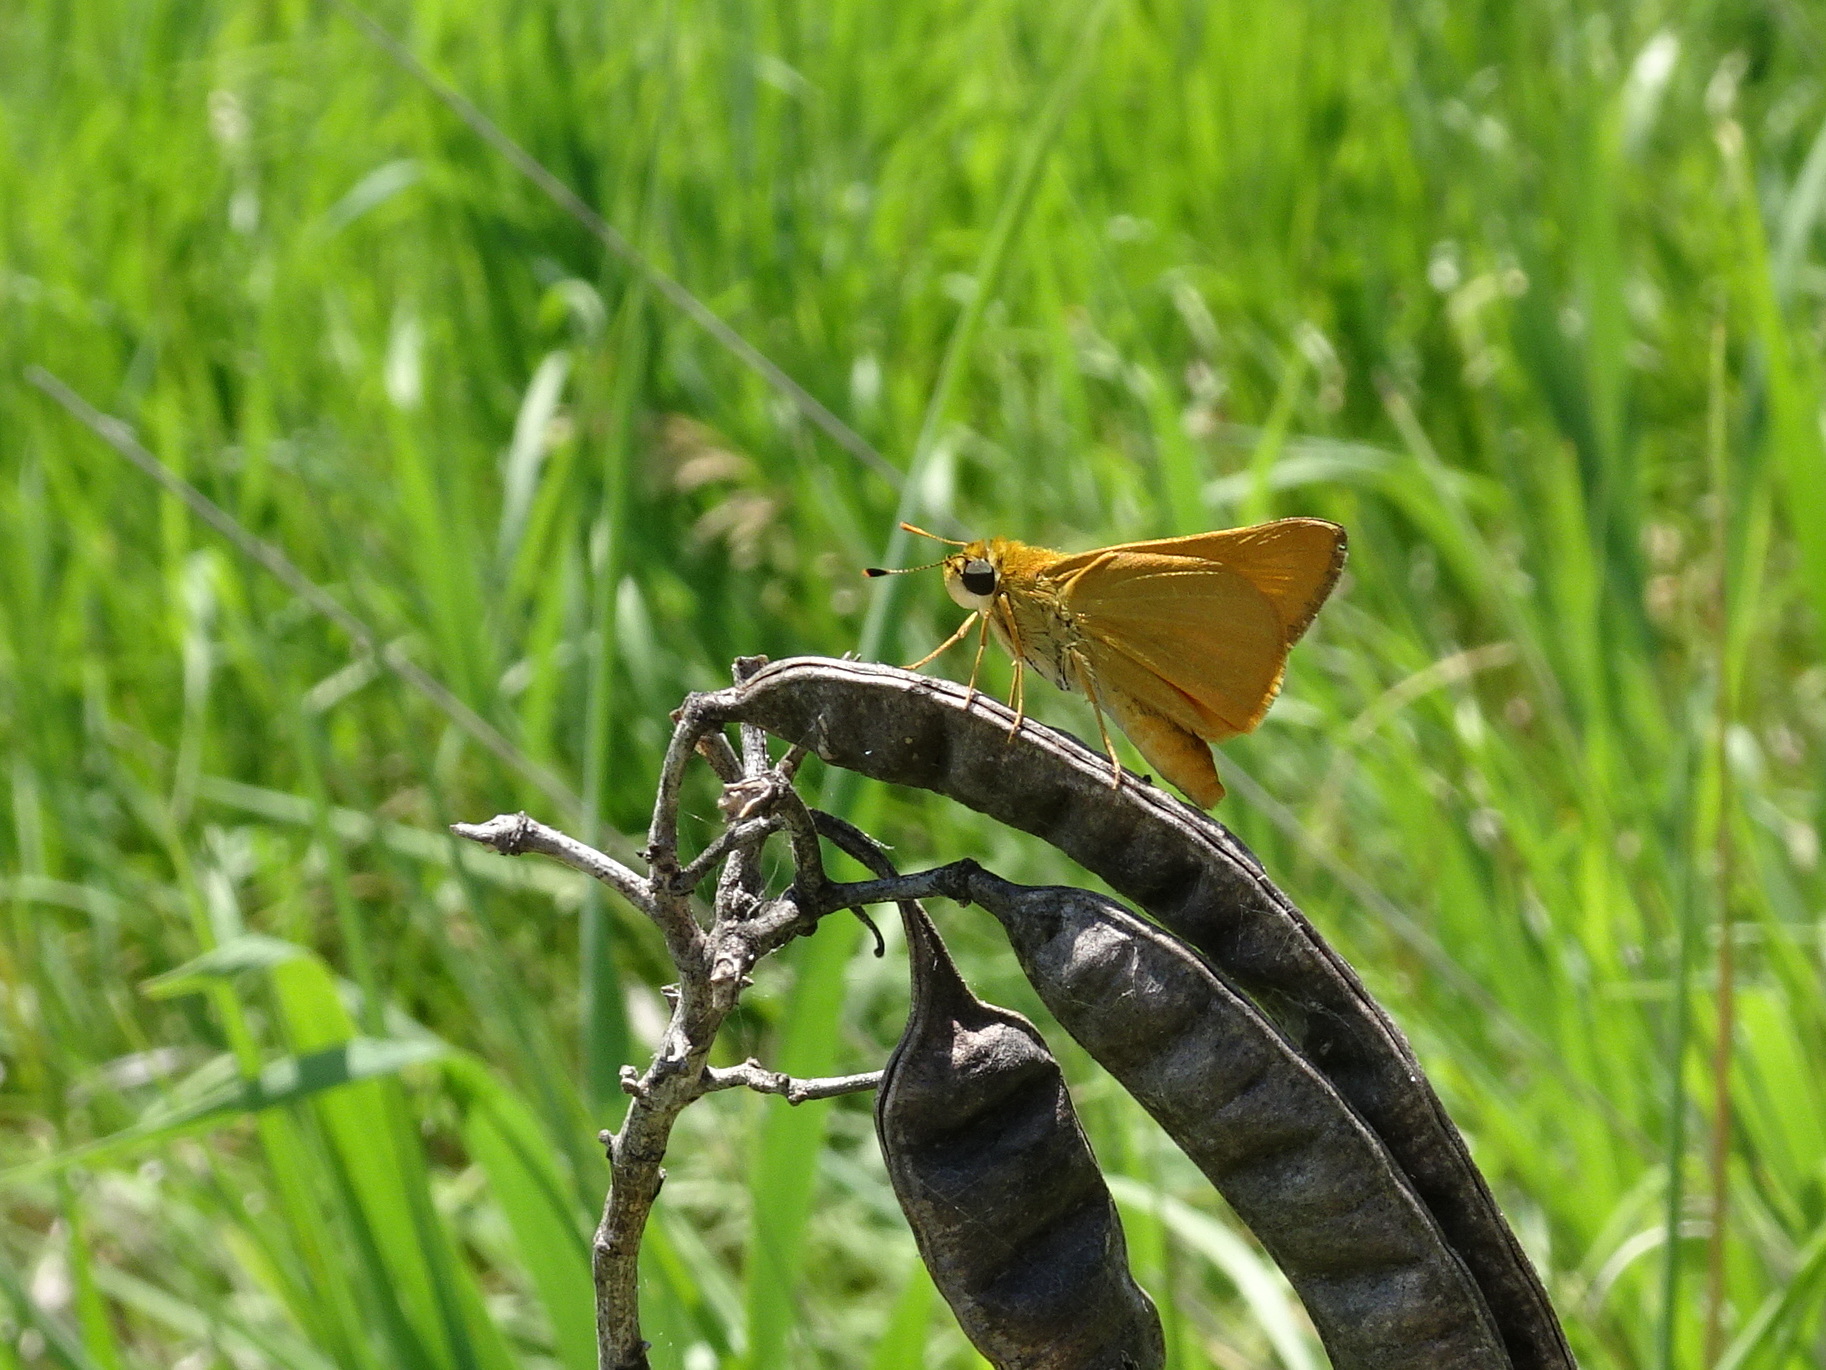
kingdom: Animalia
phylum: Arthropoda
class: Insecta
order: Lepidoptera
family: Hesperiidae
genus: Atrytone
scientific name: Atrytone delaware
